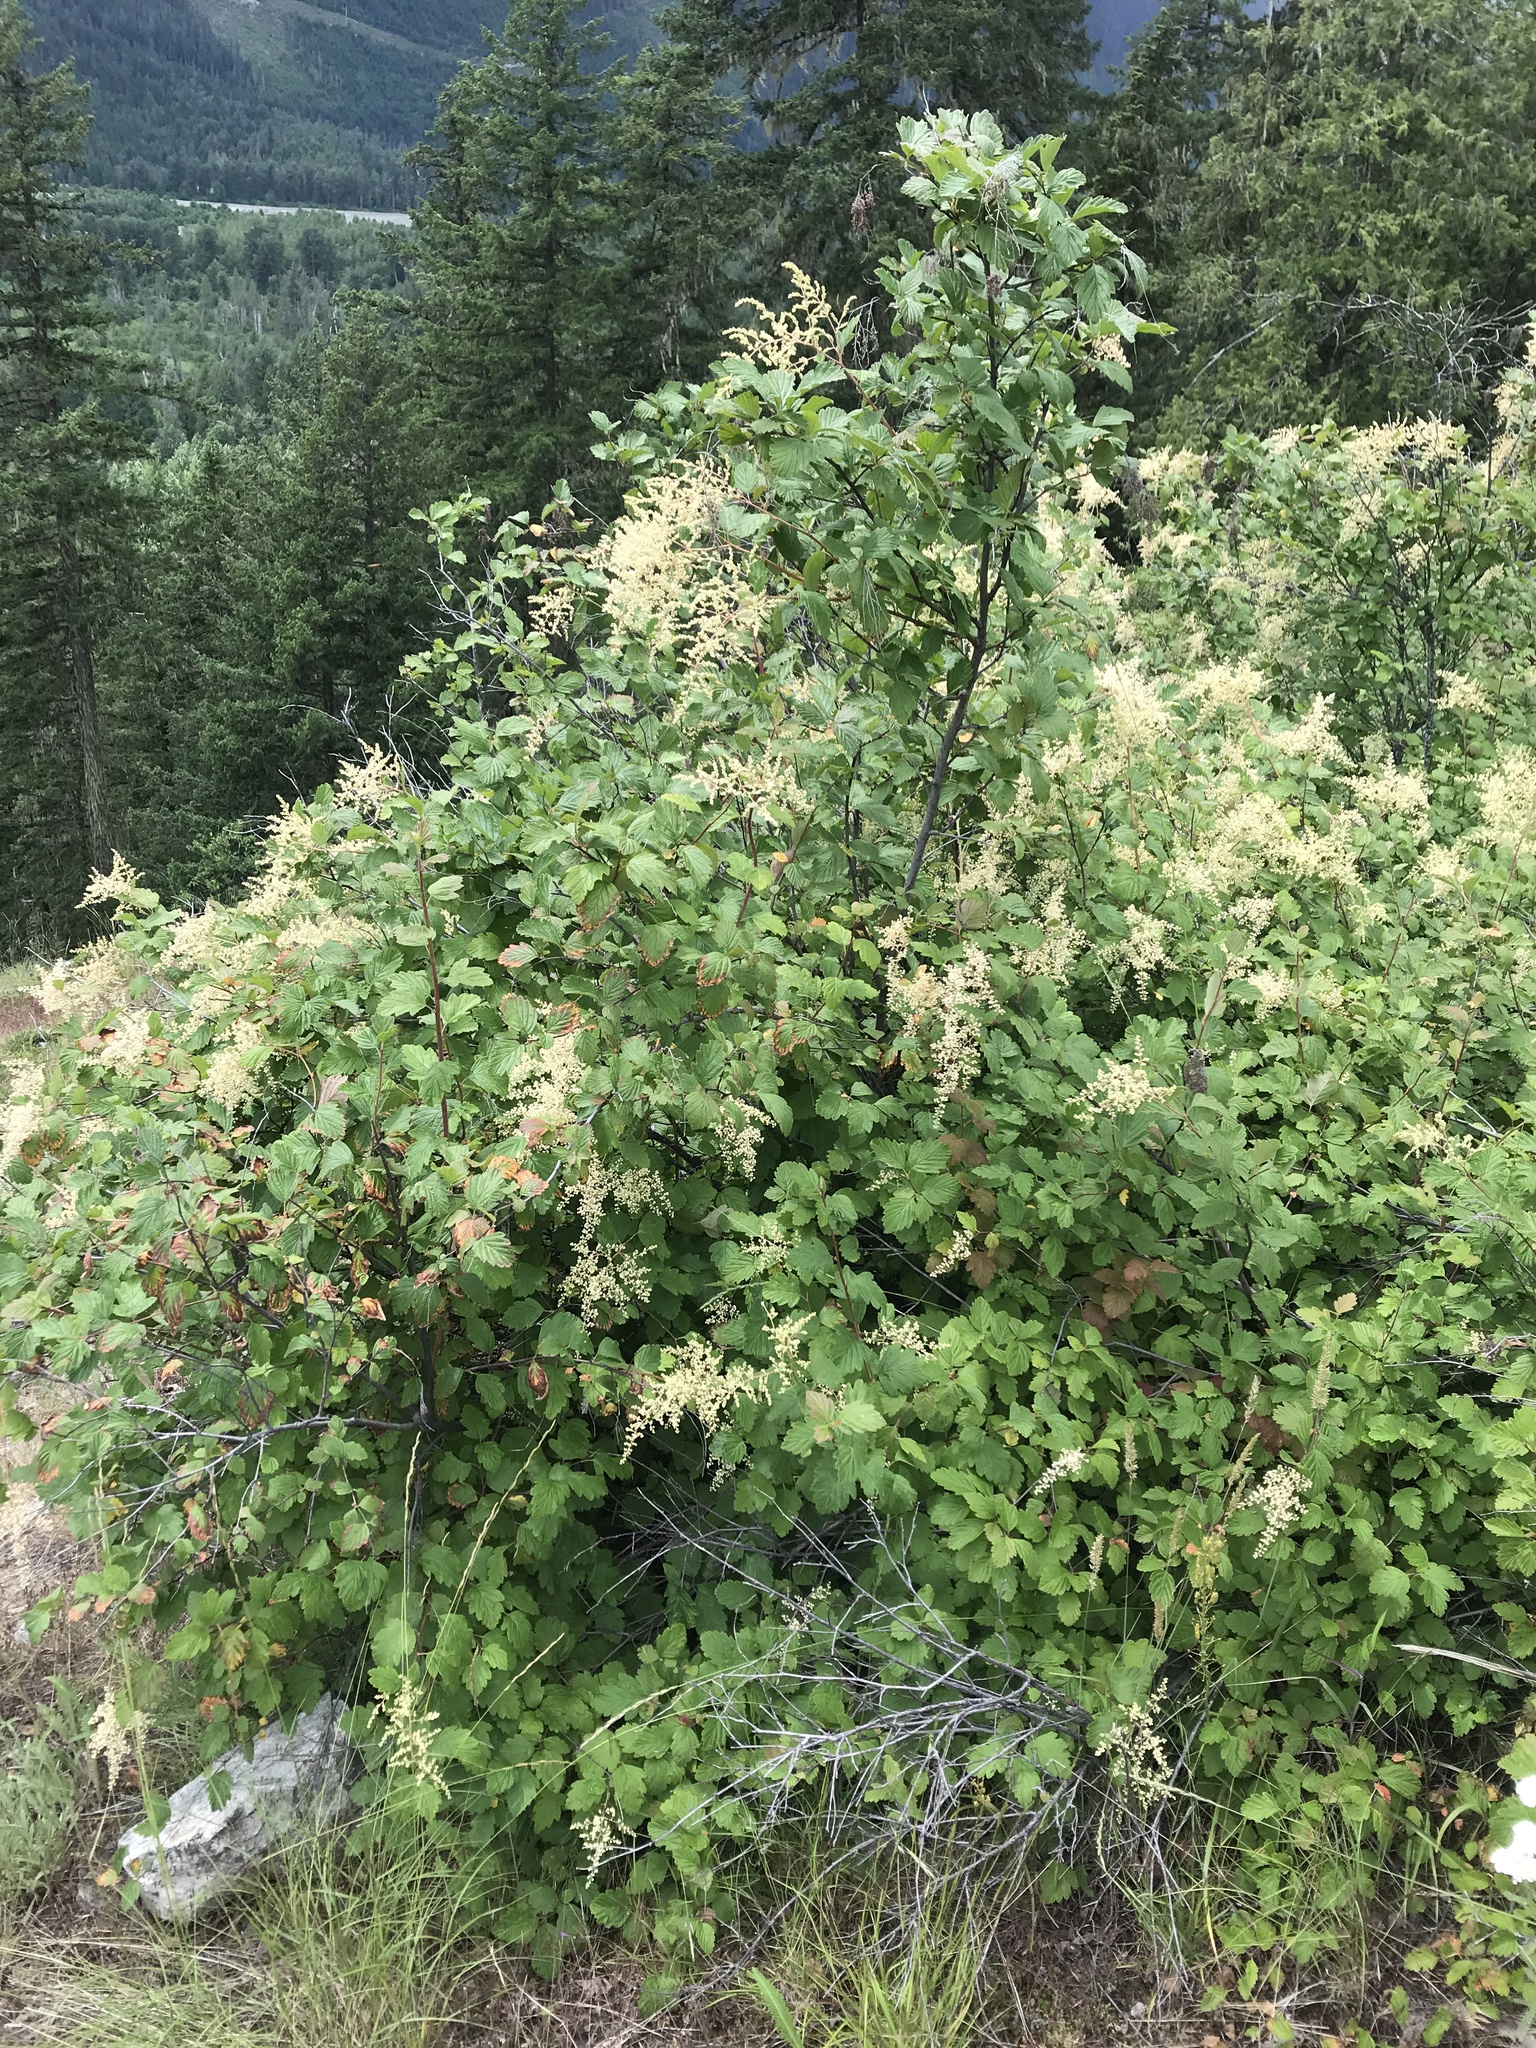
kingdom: Plantae
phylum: Tracheophyta
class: Magnoliopsida
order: Rosales
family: Rosaceae
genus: Holodiscus
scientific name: Holodiscus discolor
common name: Oceanspray
